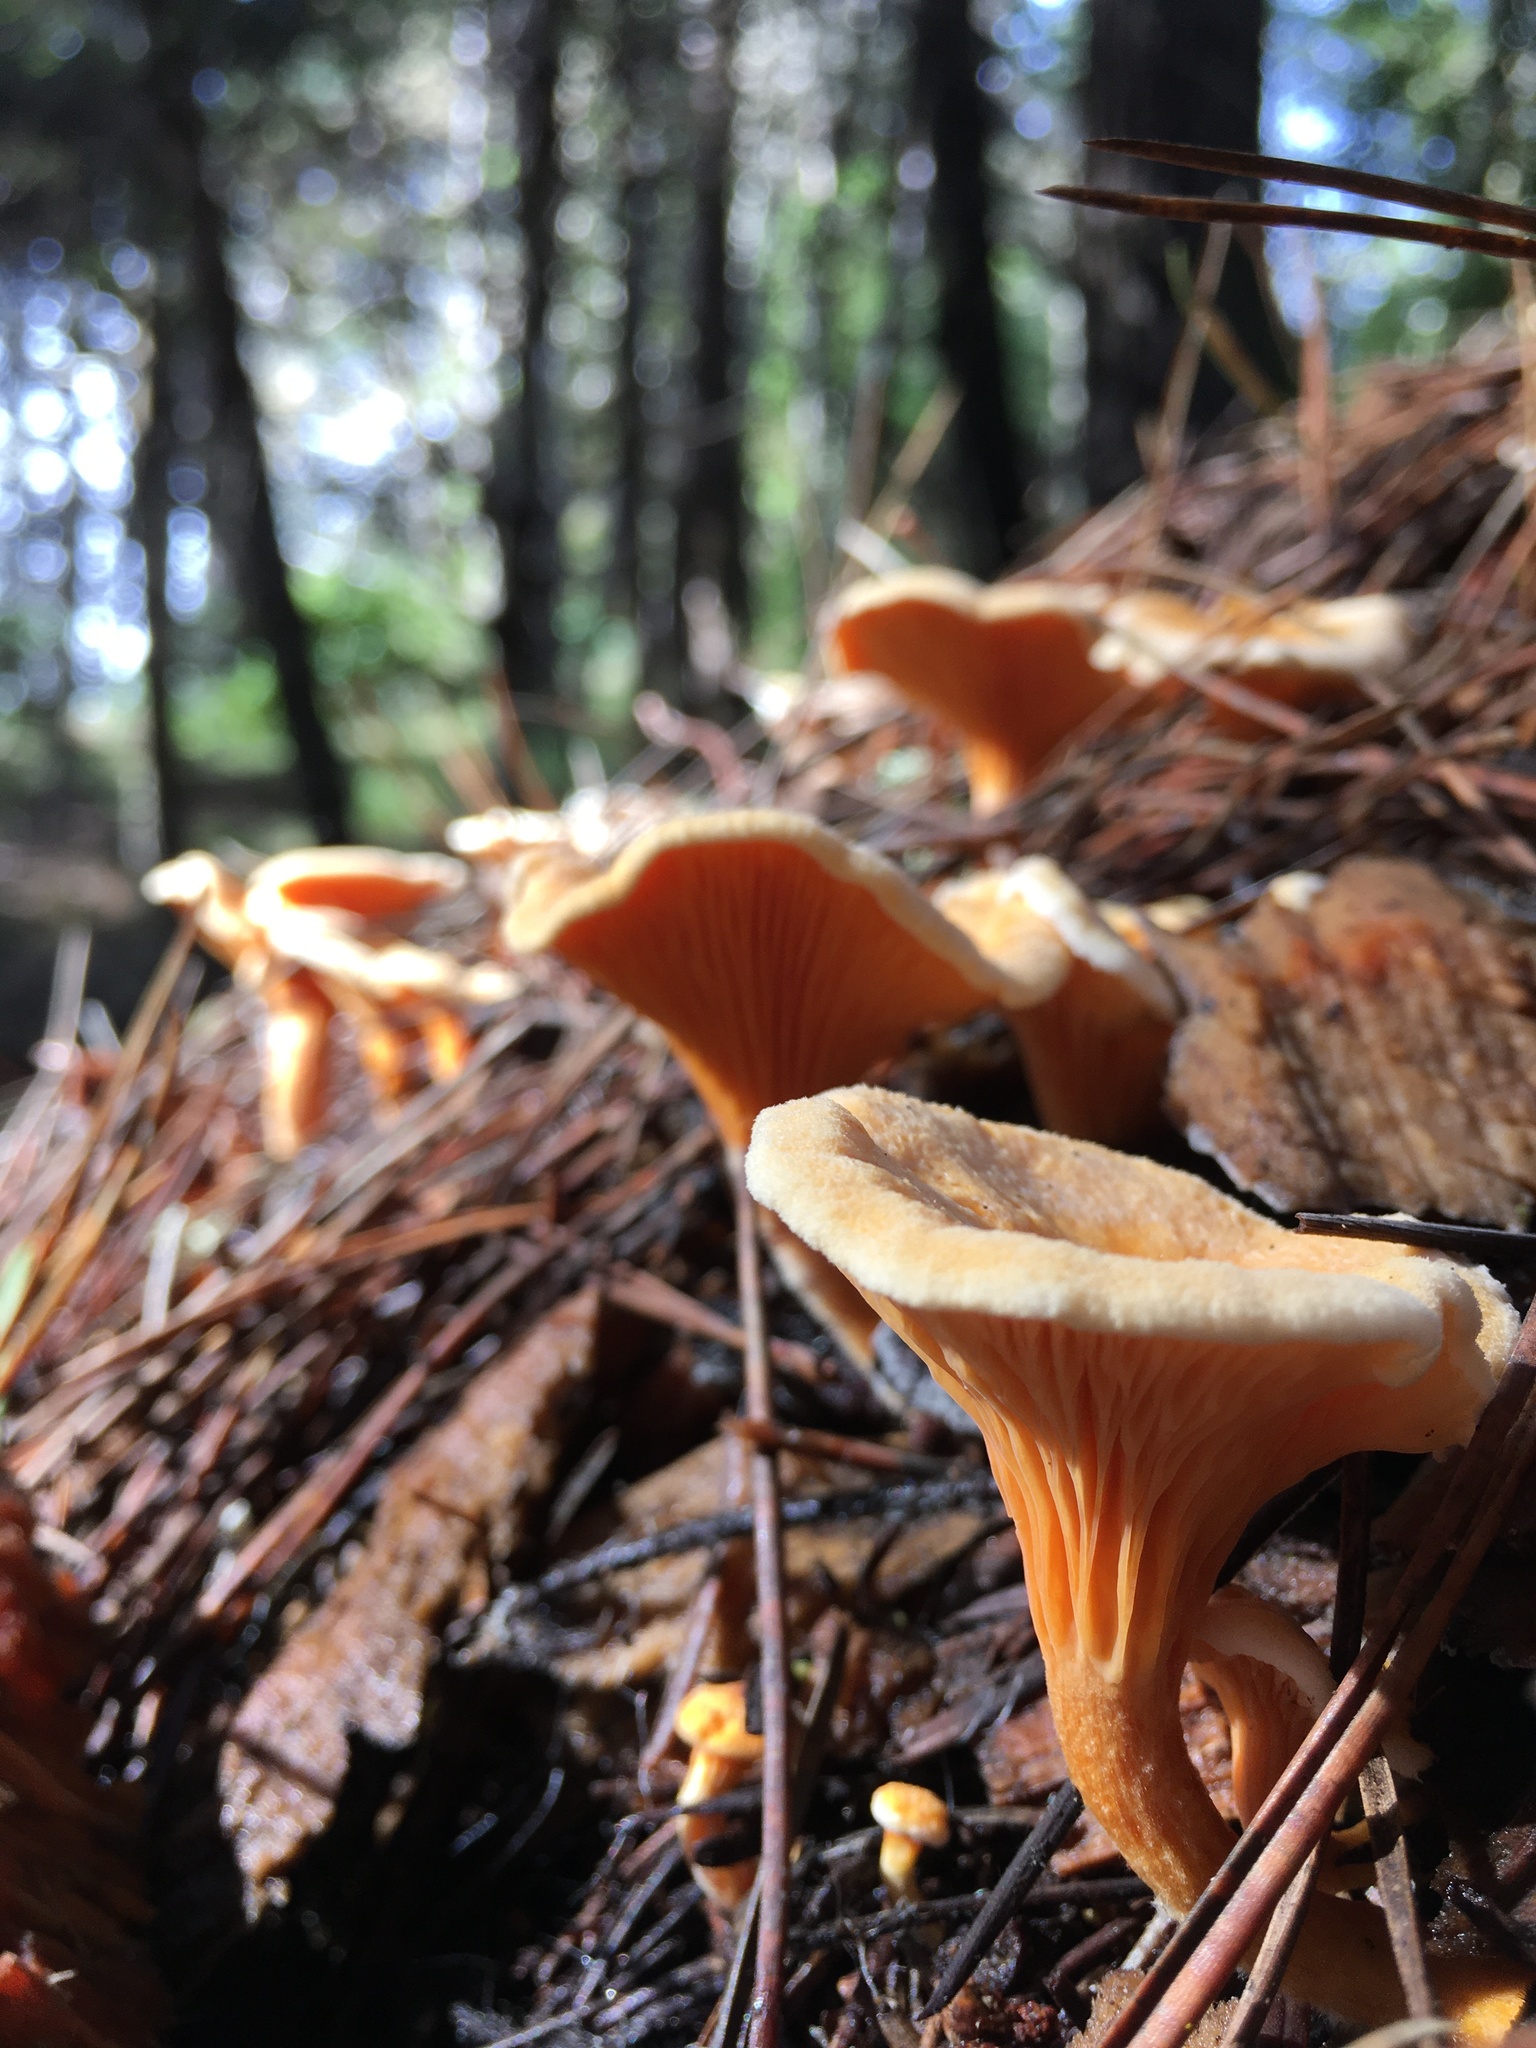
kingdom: Fungi
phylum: Basidiomycota
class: Agaricomycetes
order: Boletales
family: Hygrophoropsidaceae
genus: Hygrophoropsis
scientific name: Hygrophoropsis aurantiaca
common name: False chanterelle
